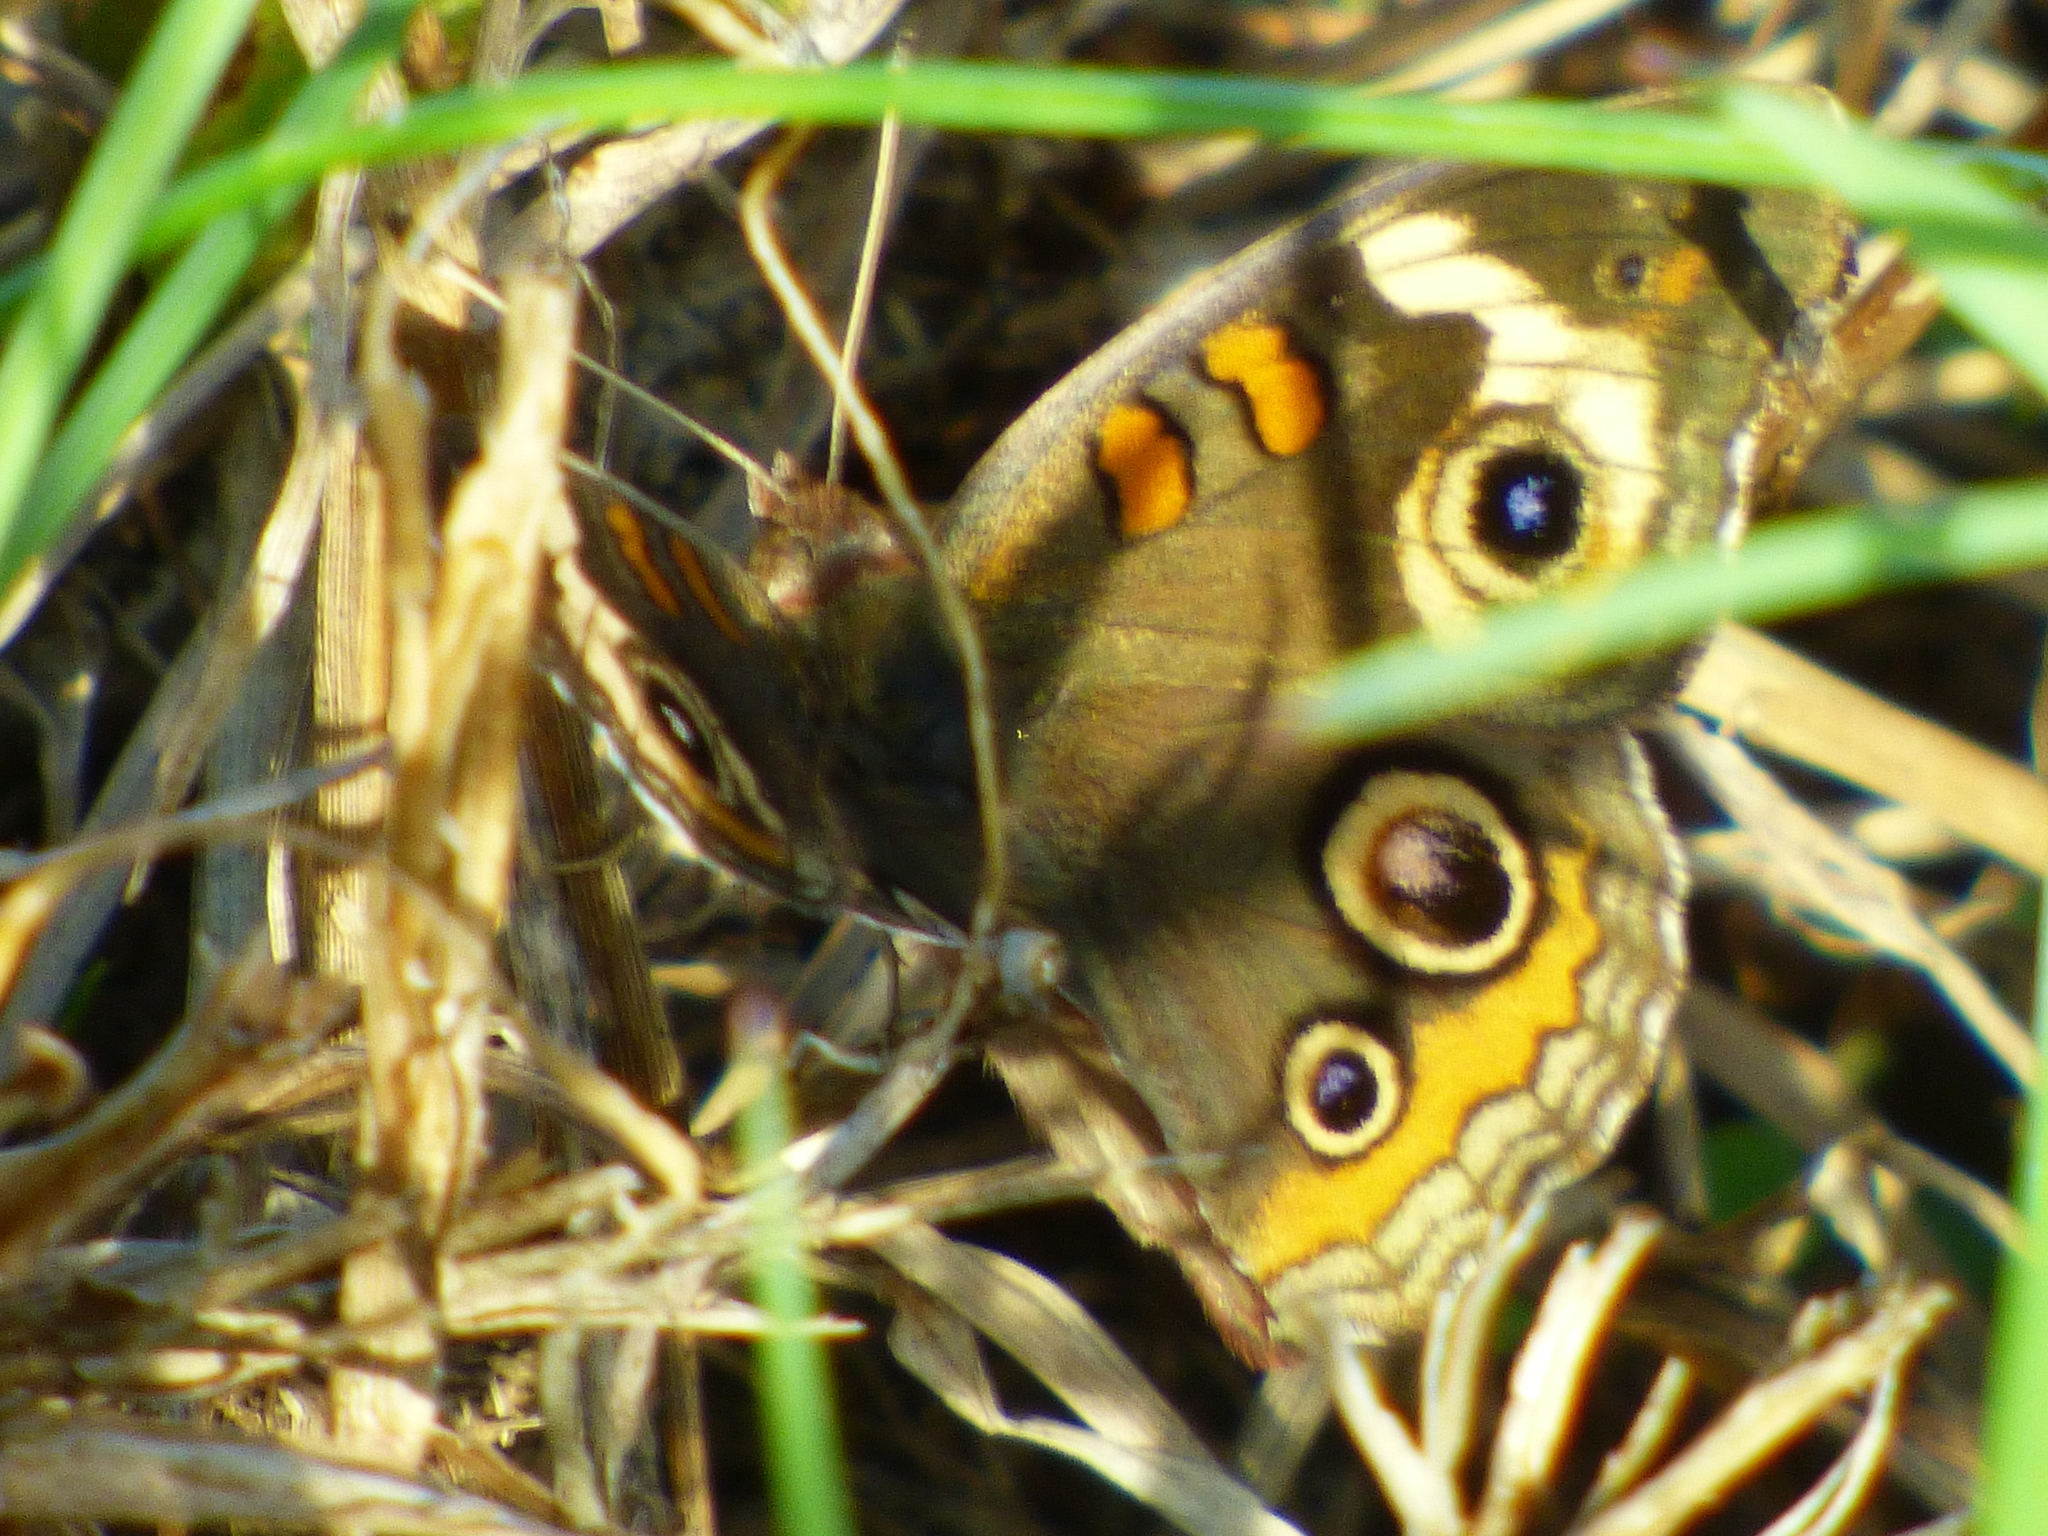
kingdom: Animalia
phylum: Arthropoda
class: Insecta
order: Lepidoptera
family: Nymphalidae
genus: Junonia
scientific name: Junonia coenia
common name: Common buckeye
